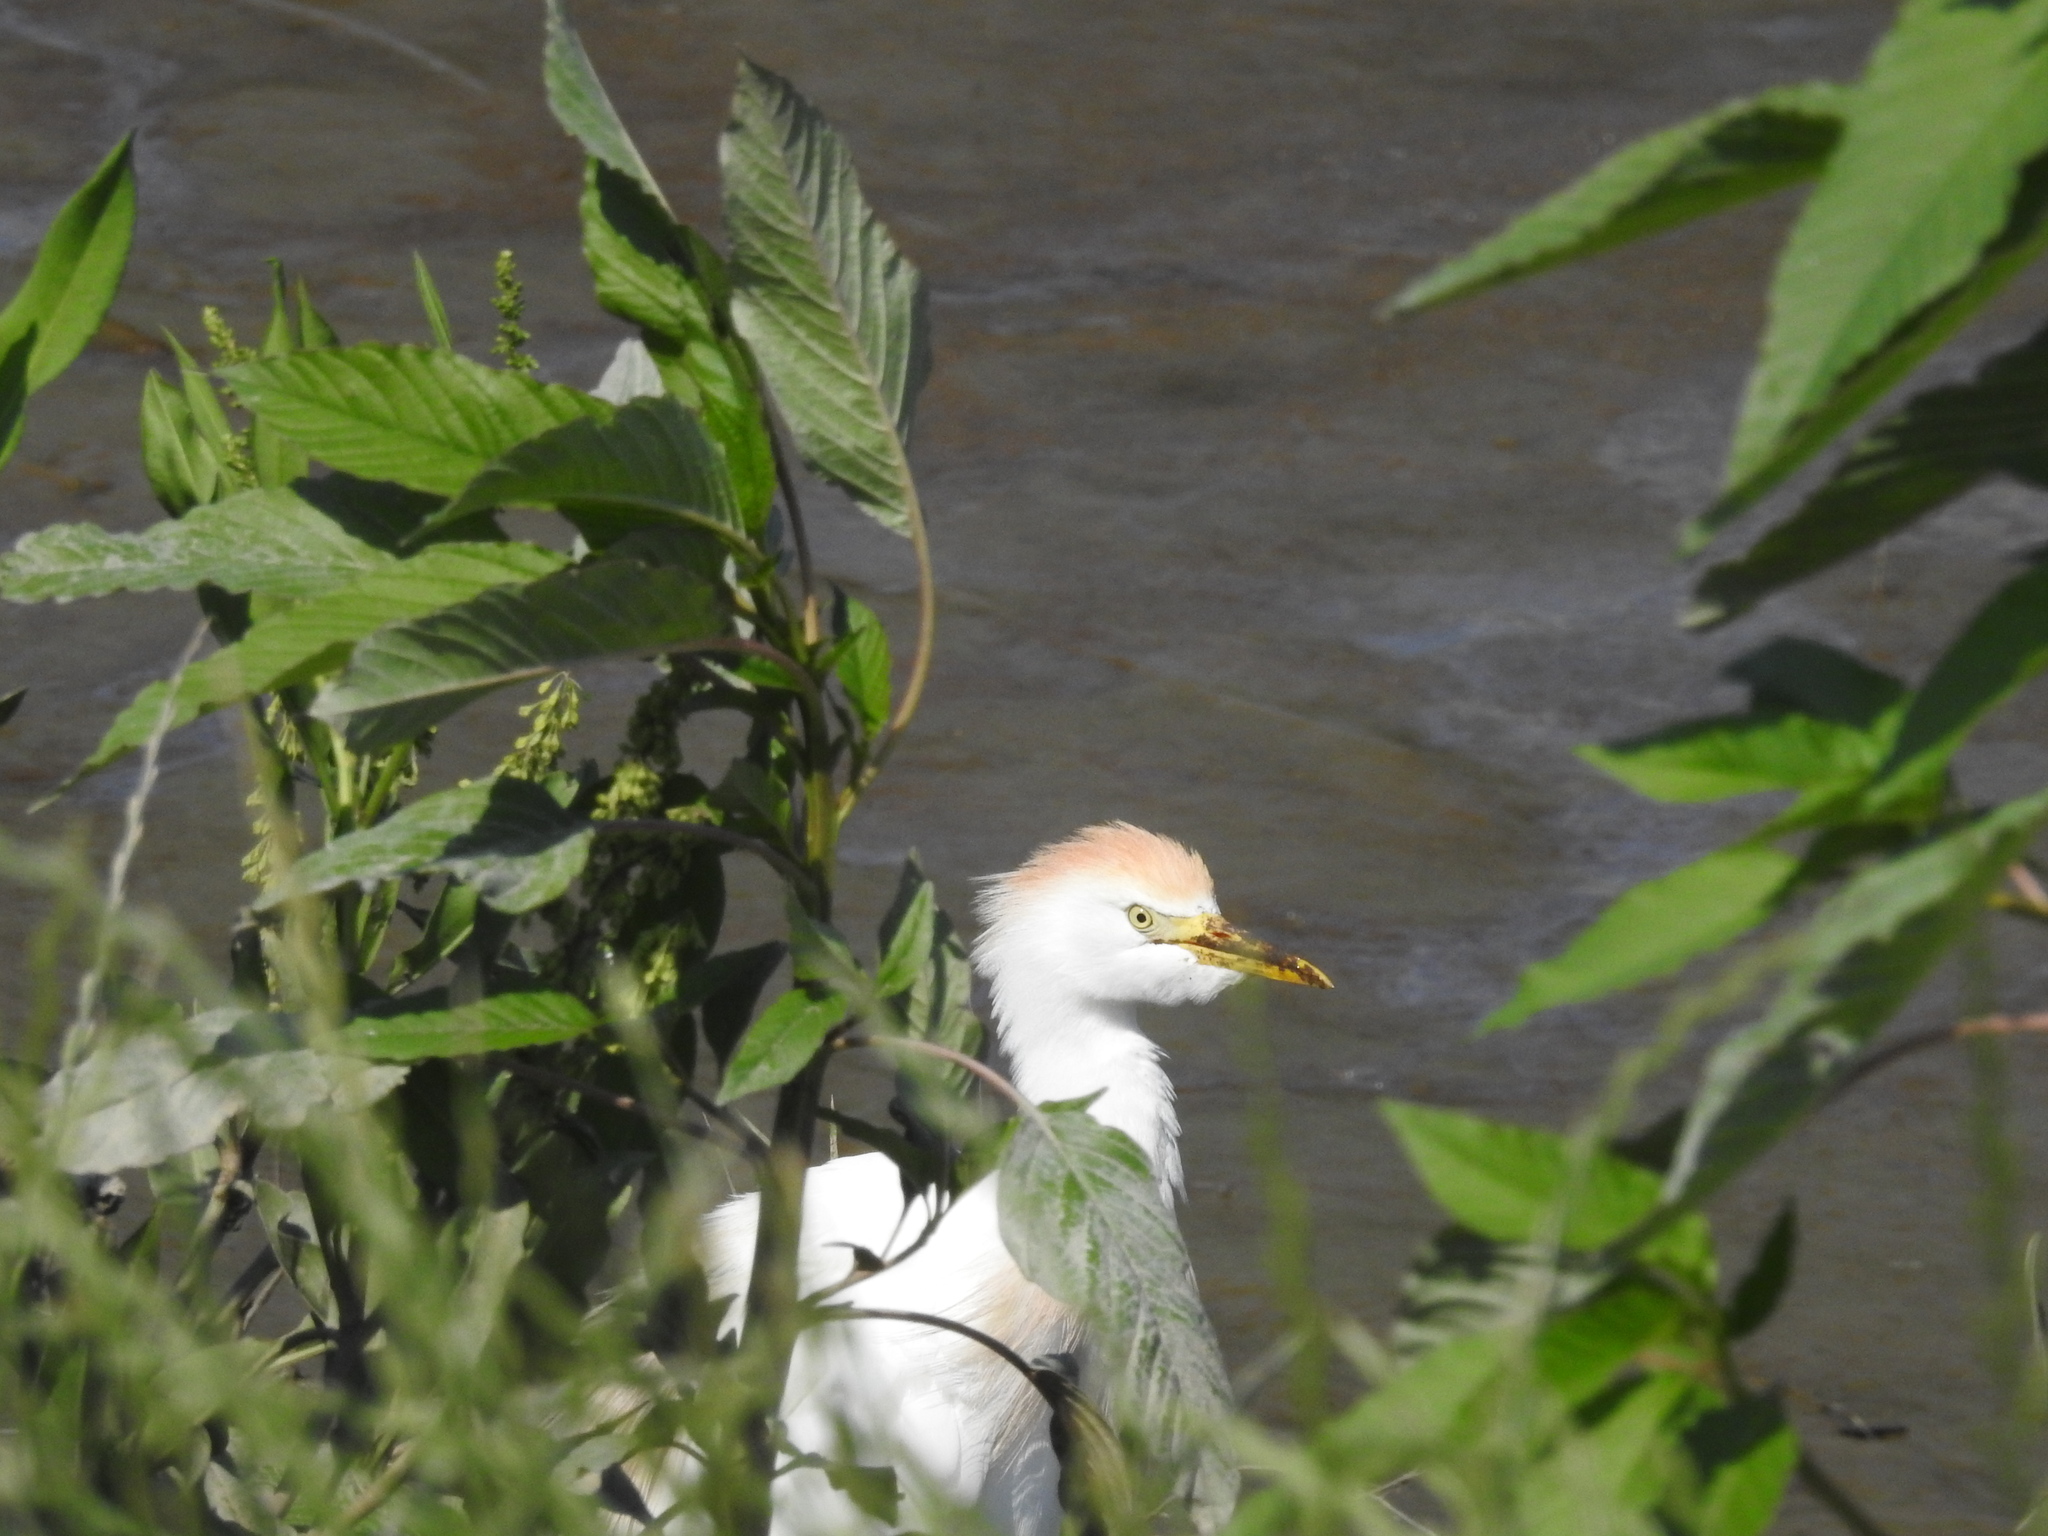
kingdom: Animalia
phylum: Chordata
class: Aves
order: Pelecaniformes
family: Ardeidae
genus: Bubulcus
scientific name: Bubulcus ibis
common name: Cattle egret
